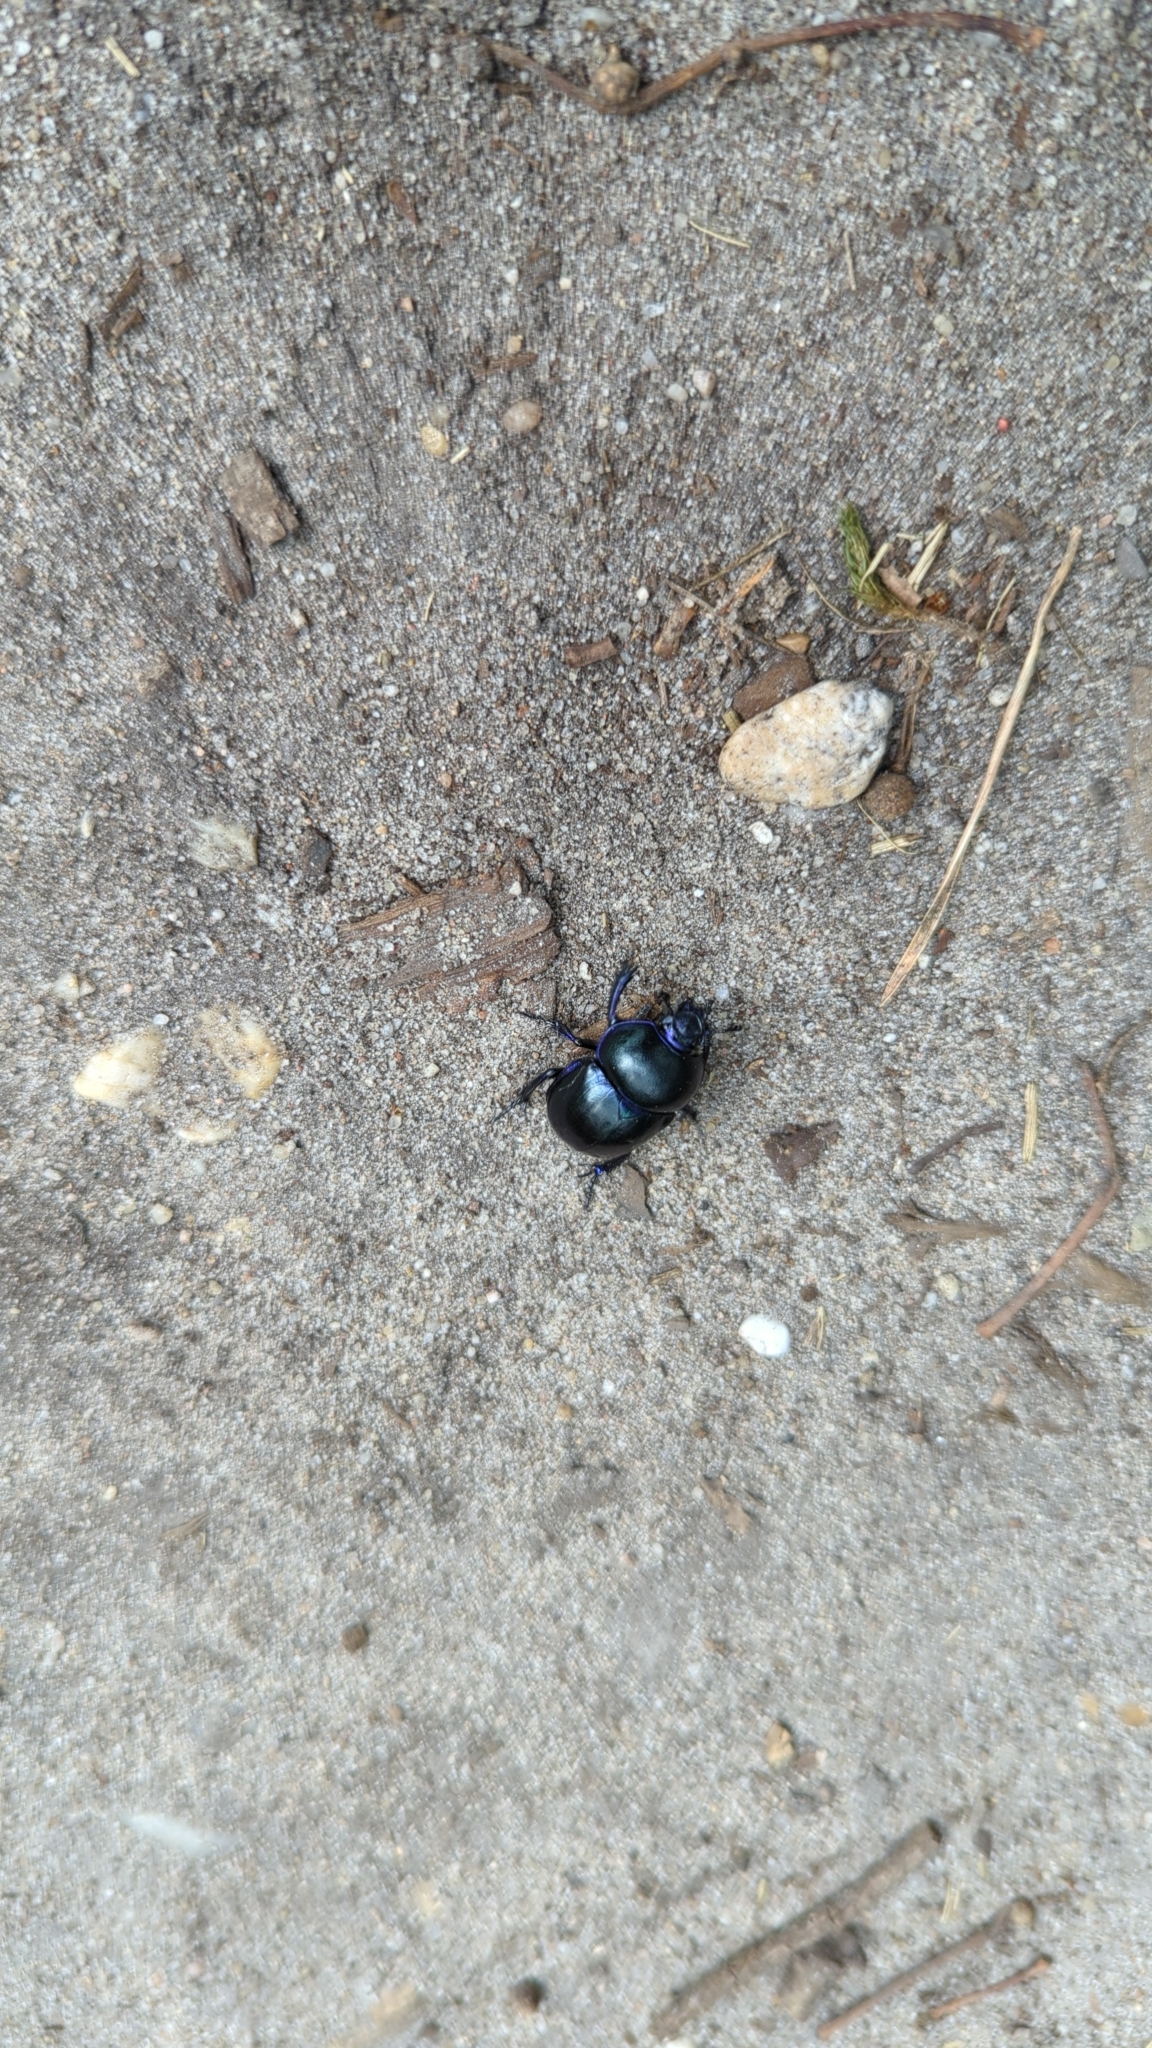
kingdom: Animalia
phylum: Arthropoda
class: Insecta
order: Coleoptera
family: Geotrupidae
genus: Trypocopris
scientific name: Trypocopris vernalis
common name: Spring dumbledor
